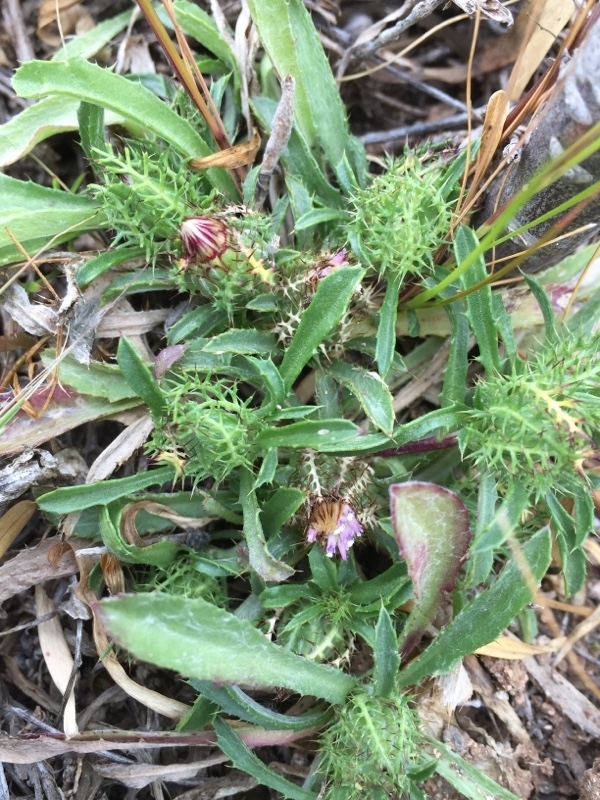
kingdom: Plantae
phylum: Tracheophyta
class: Magnoliopsida
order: Asterales
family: Asteraceae
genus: Atractylis
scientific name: Atractylis cancellata
